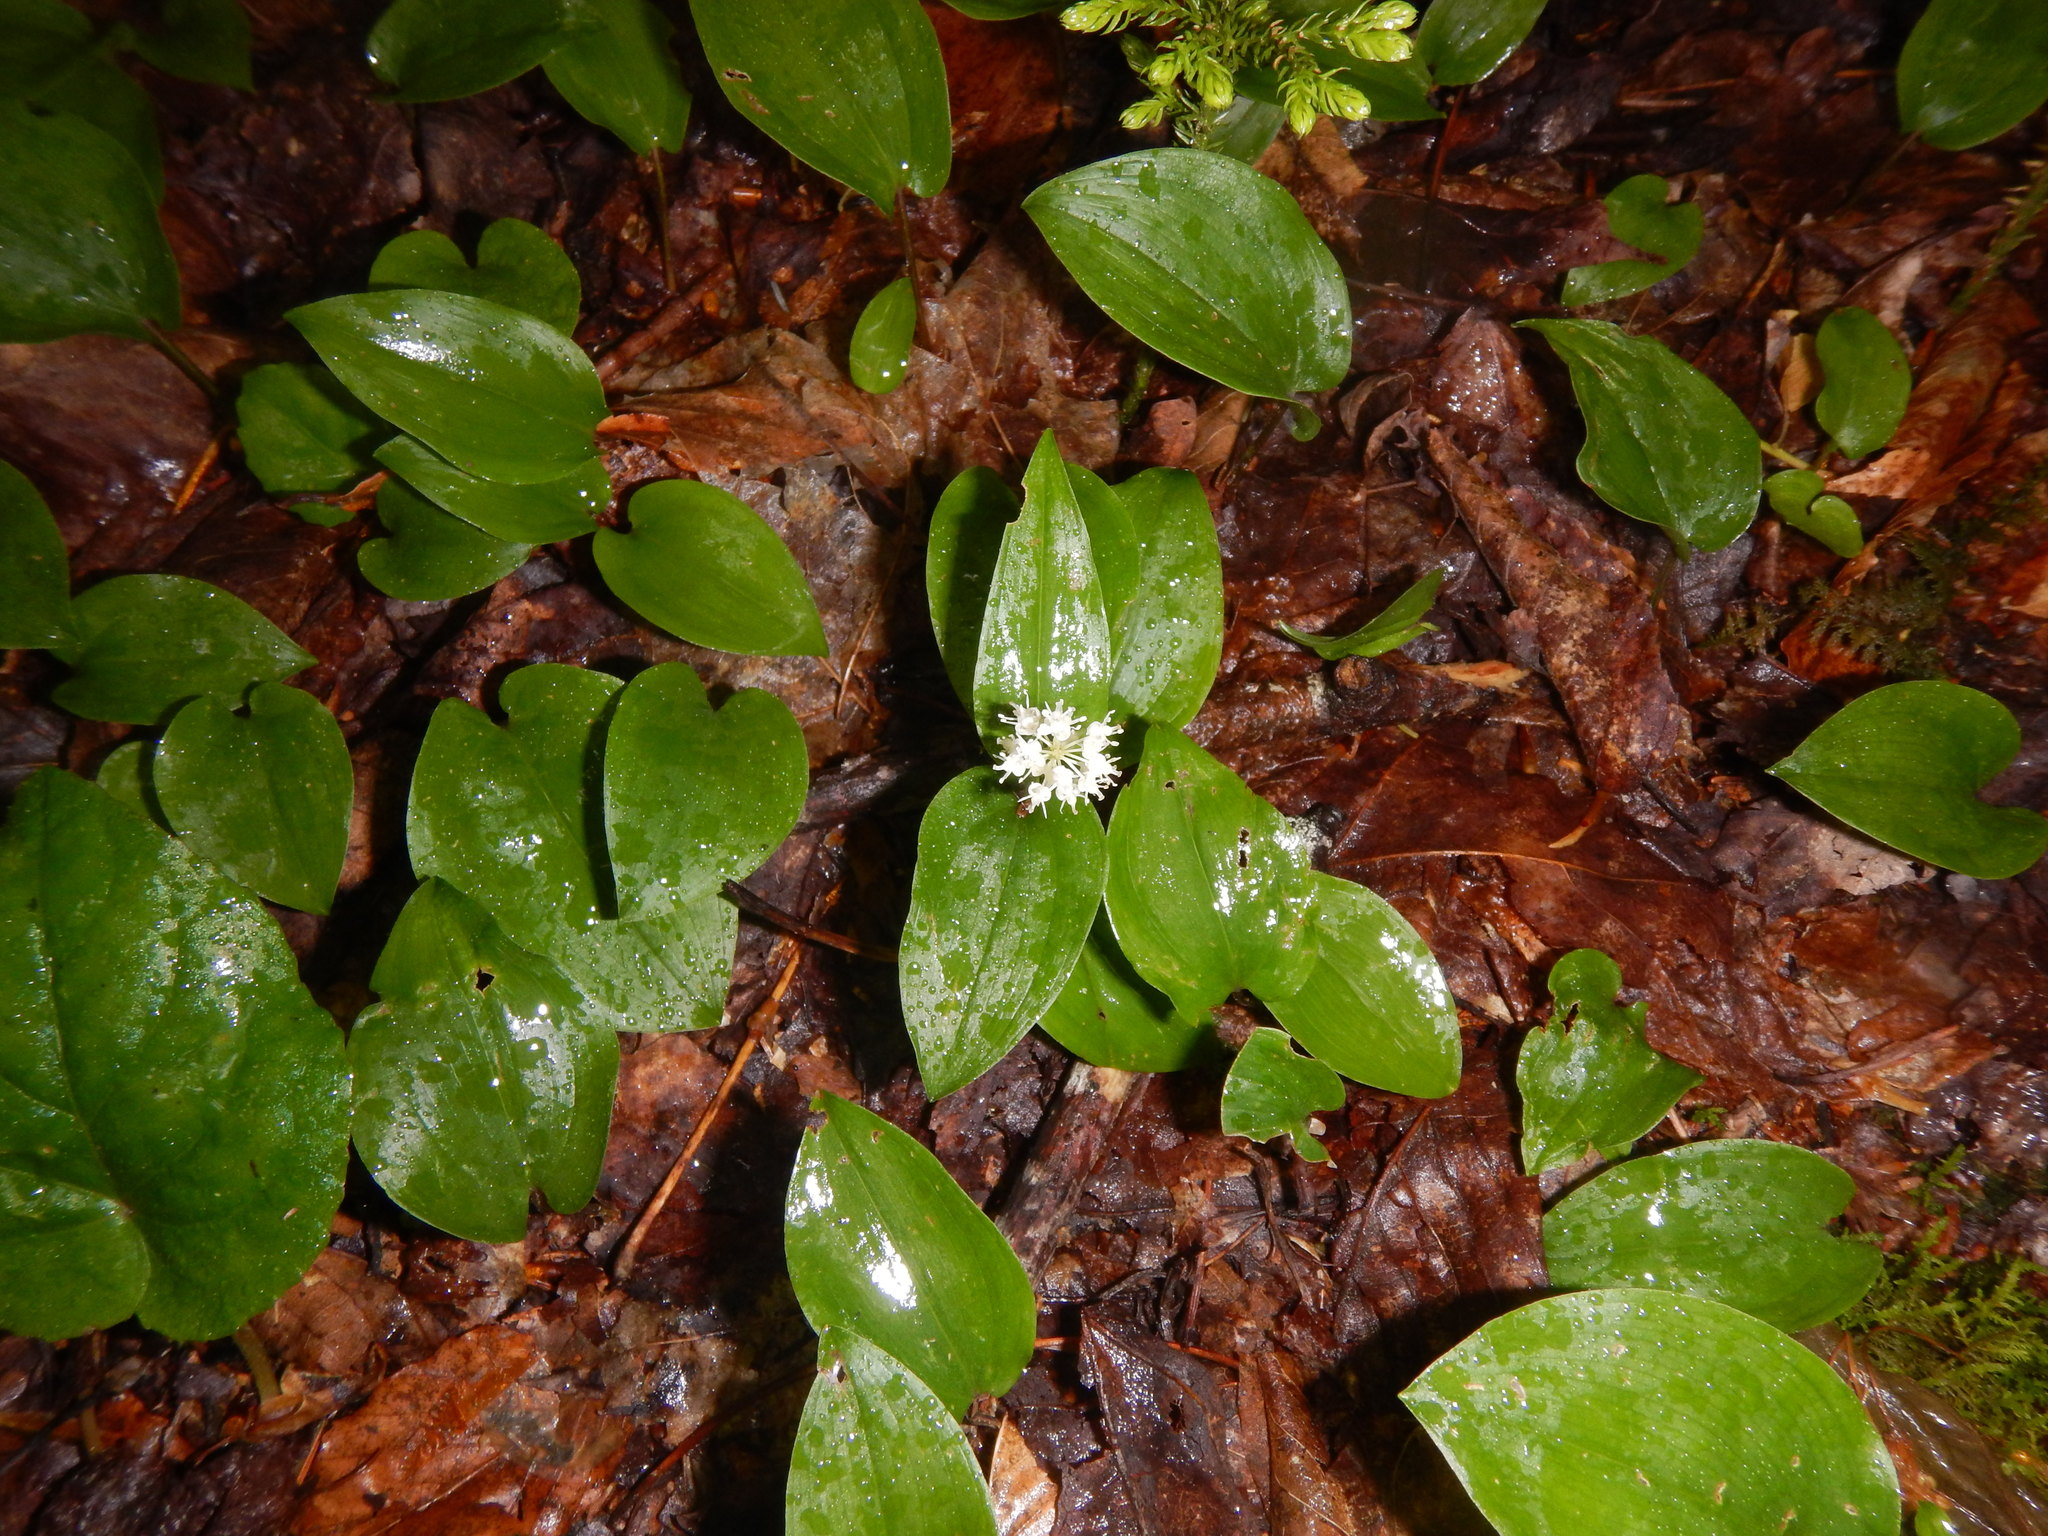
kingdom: Plantae
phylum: Tracheophyta
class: Liliopsida
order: Asparagales
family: Asparagaceae
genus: Maianthemum
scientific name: Maianthemum canadense
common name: False lily-of-the-valley
